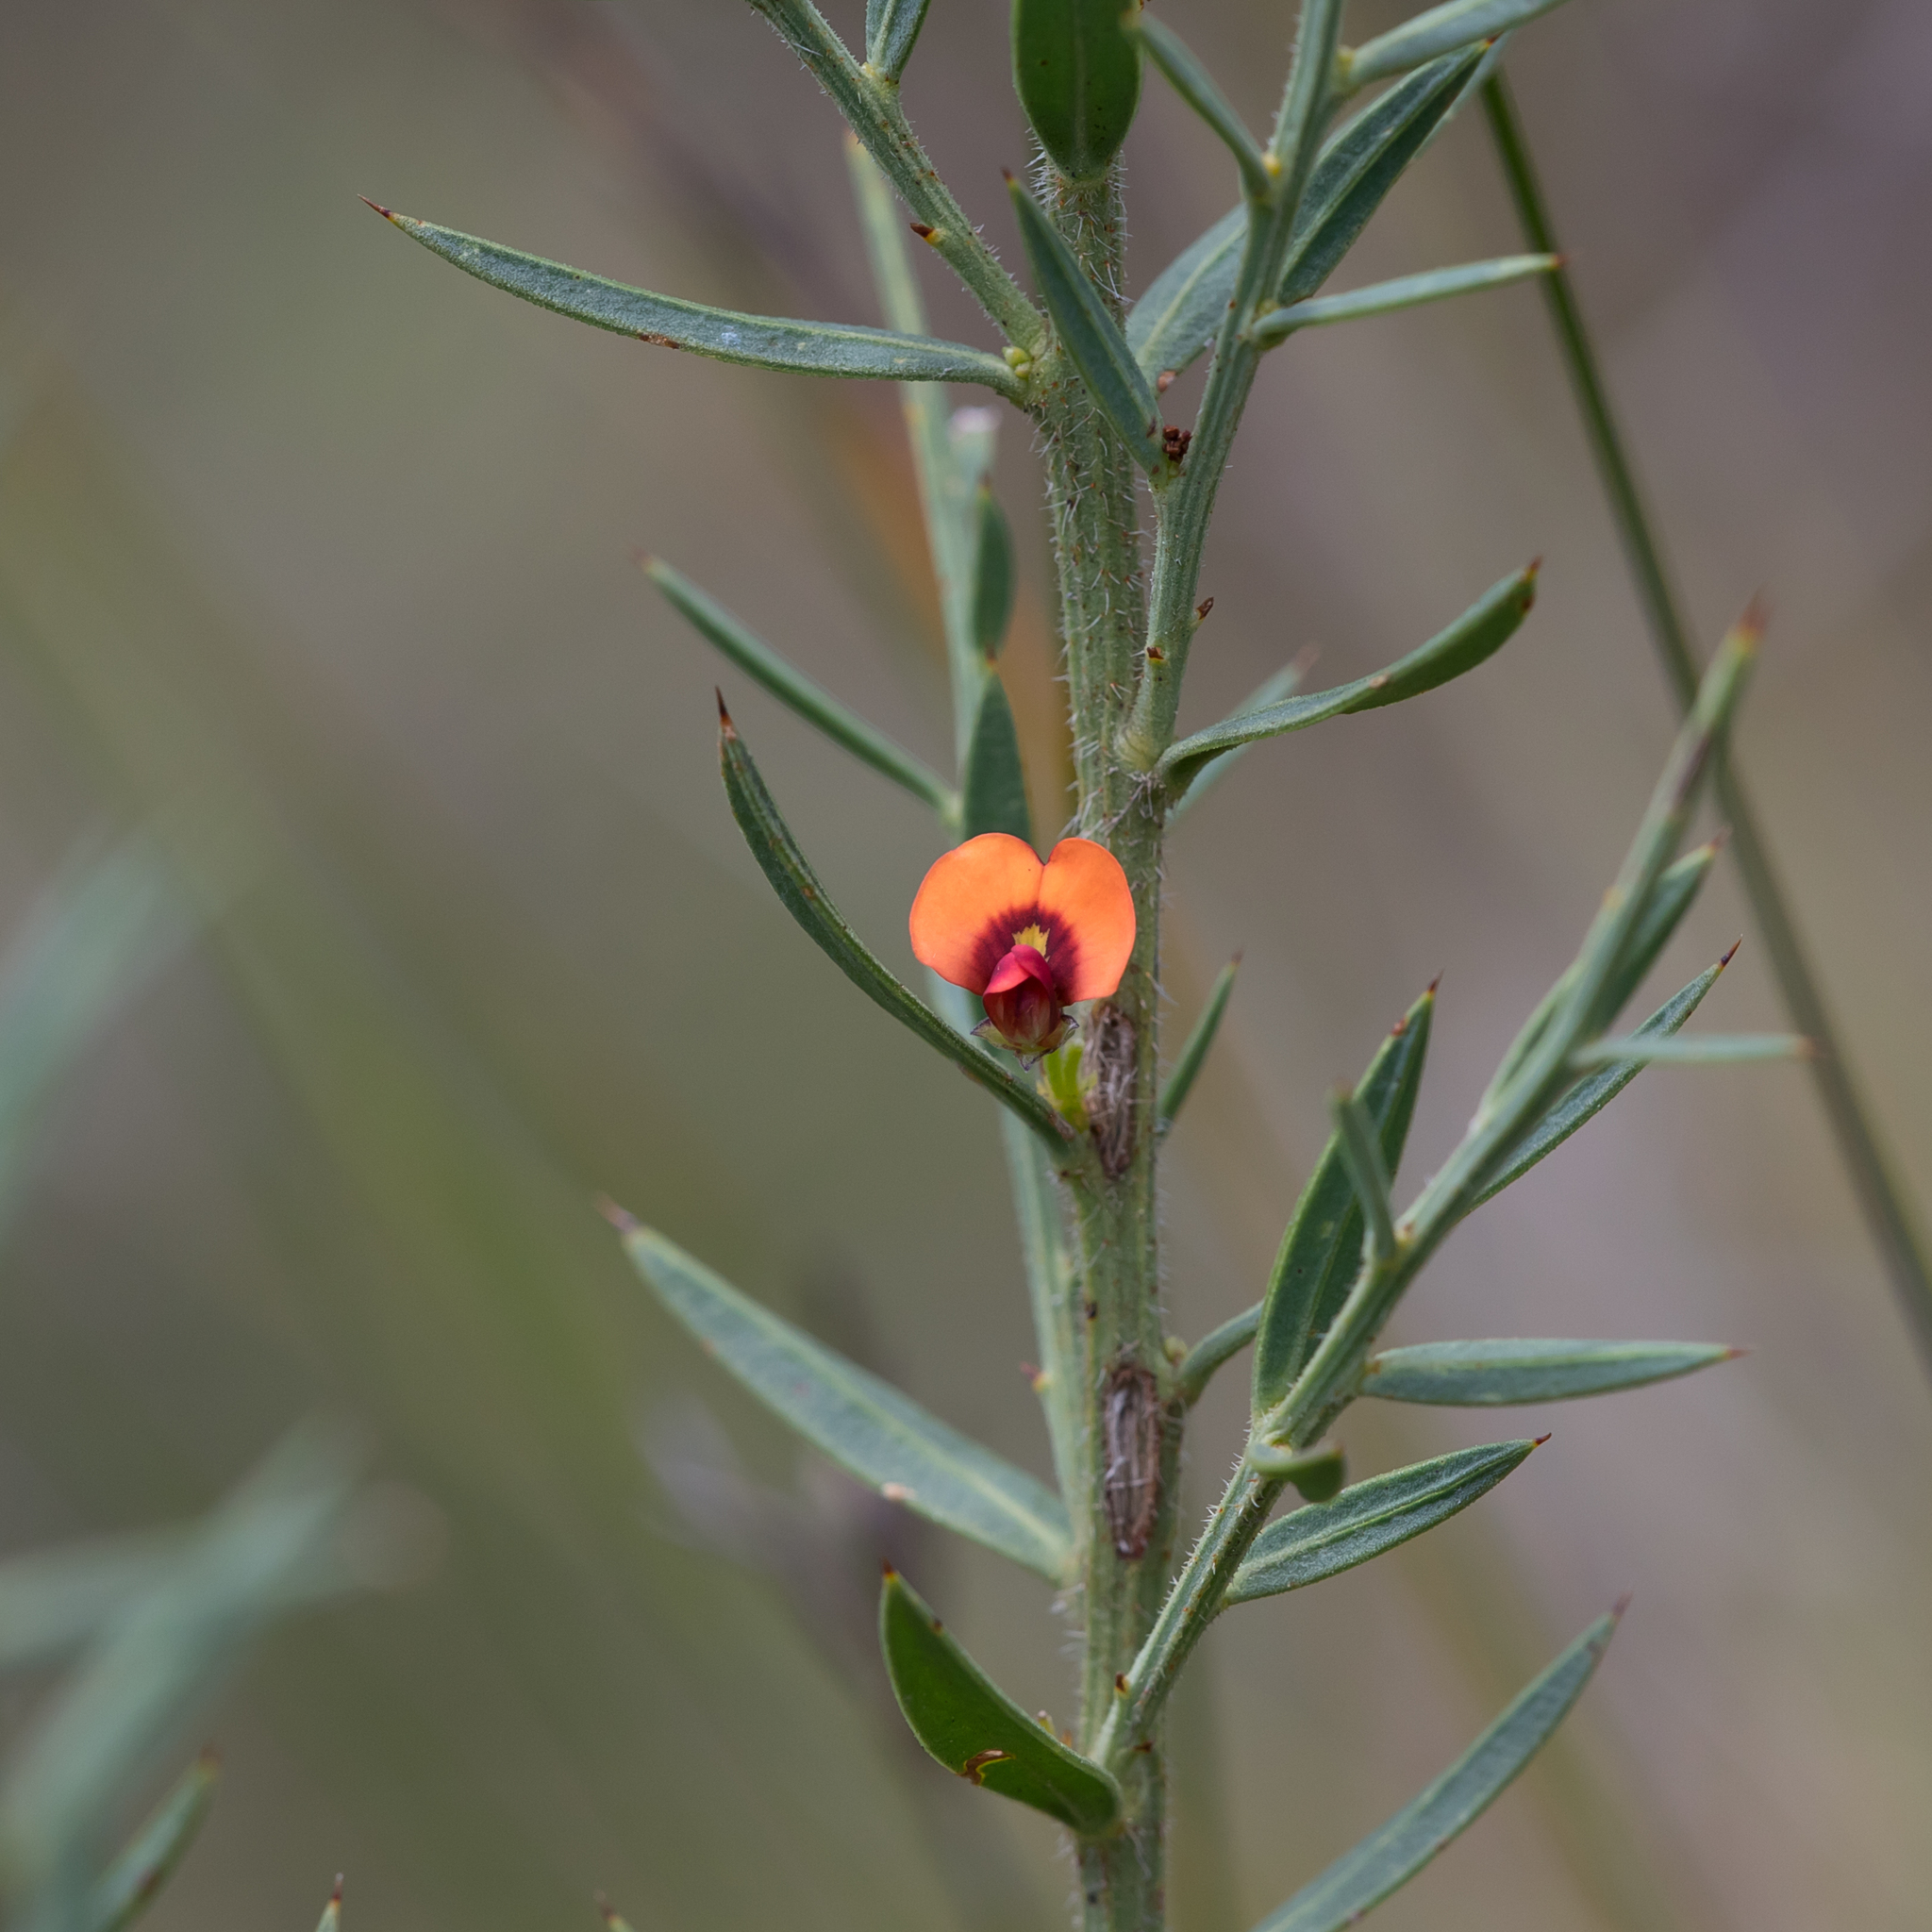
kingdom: Plantae
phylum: Tracheophyta
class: Magnoliopsida
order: Fabales
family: Fabaceae
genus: Daviesia
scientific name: Daviesia ulicifolia
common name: Gorse bitter-pea
